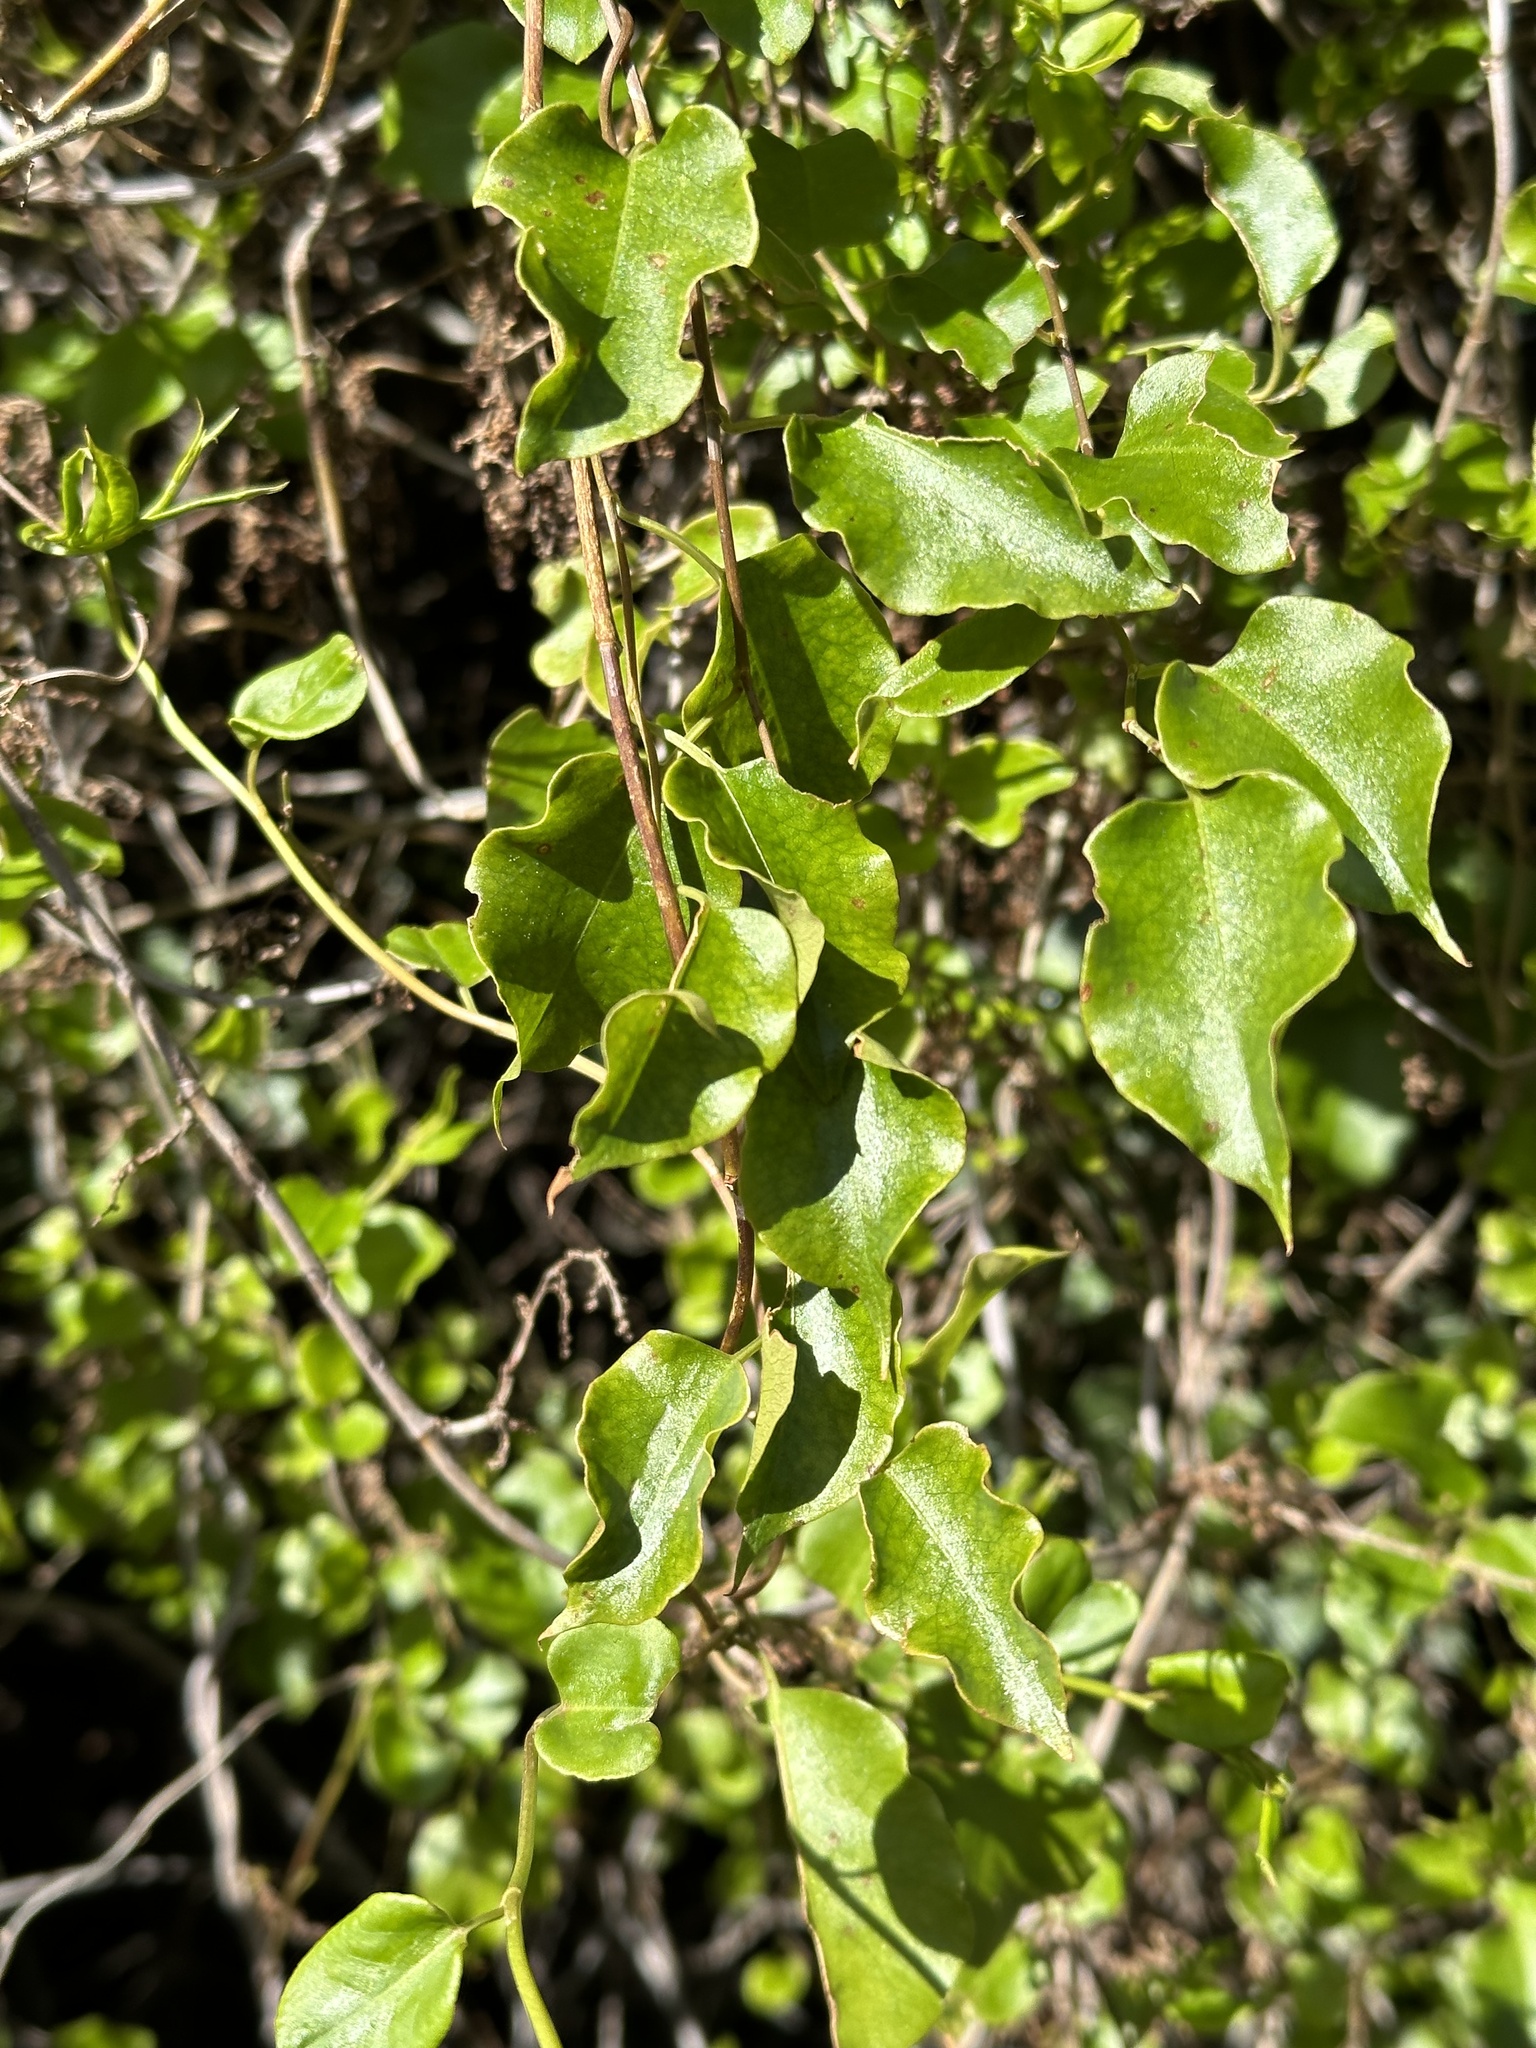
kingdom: Plantae
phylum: Tracheophyta
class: Magnoliopsida
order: Caryophyllales
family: Polygonaceae
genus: Muehlenbeckia
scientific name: Muehlenbeckia australis
